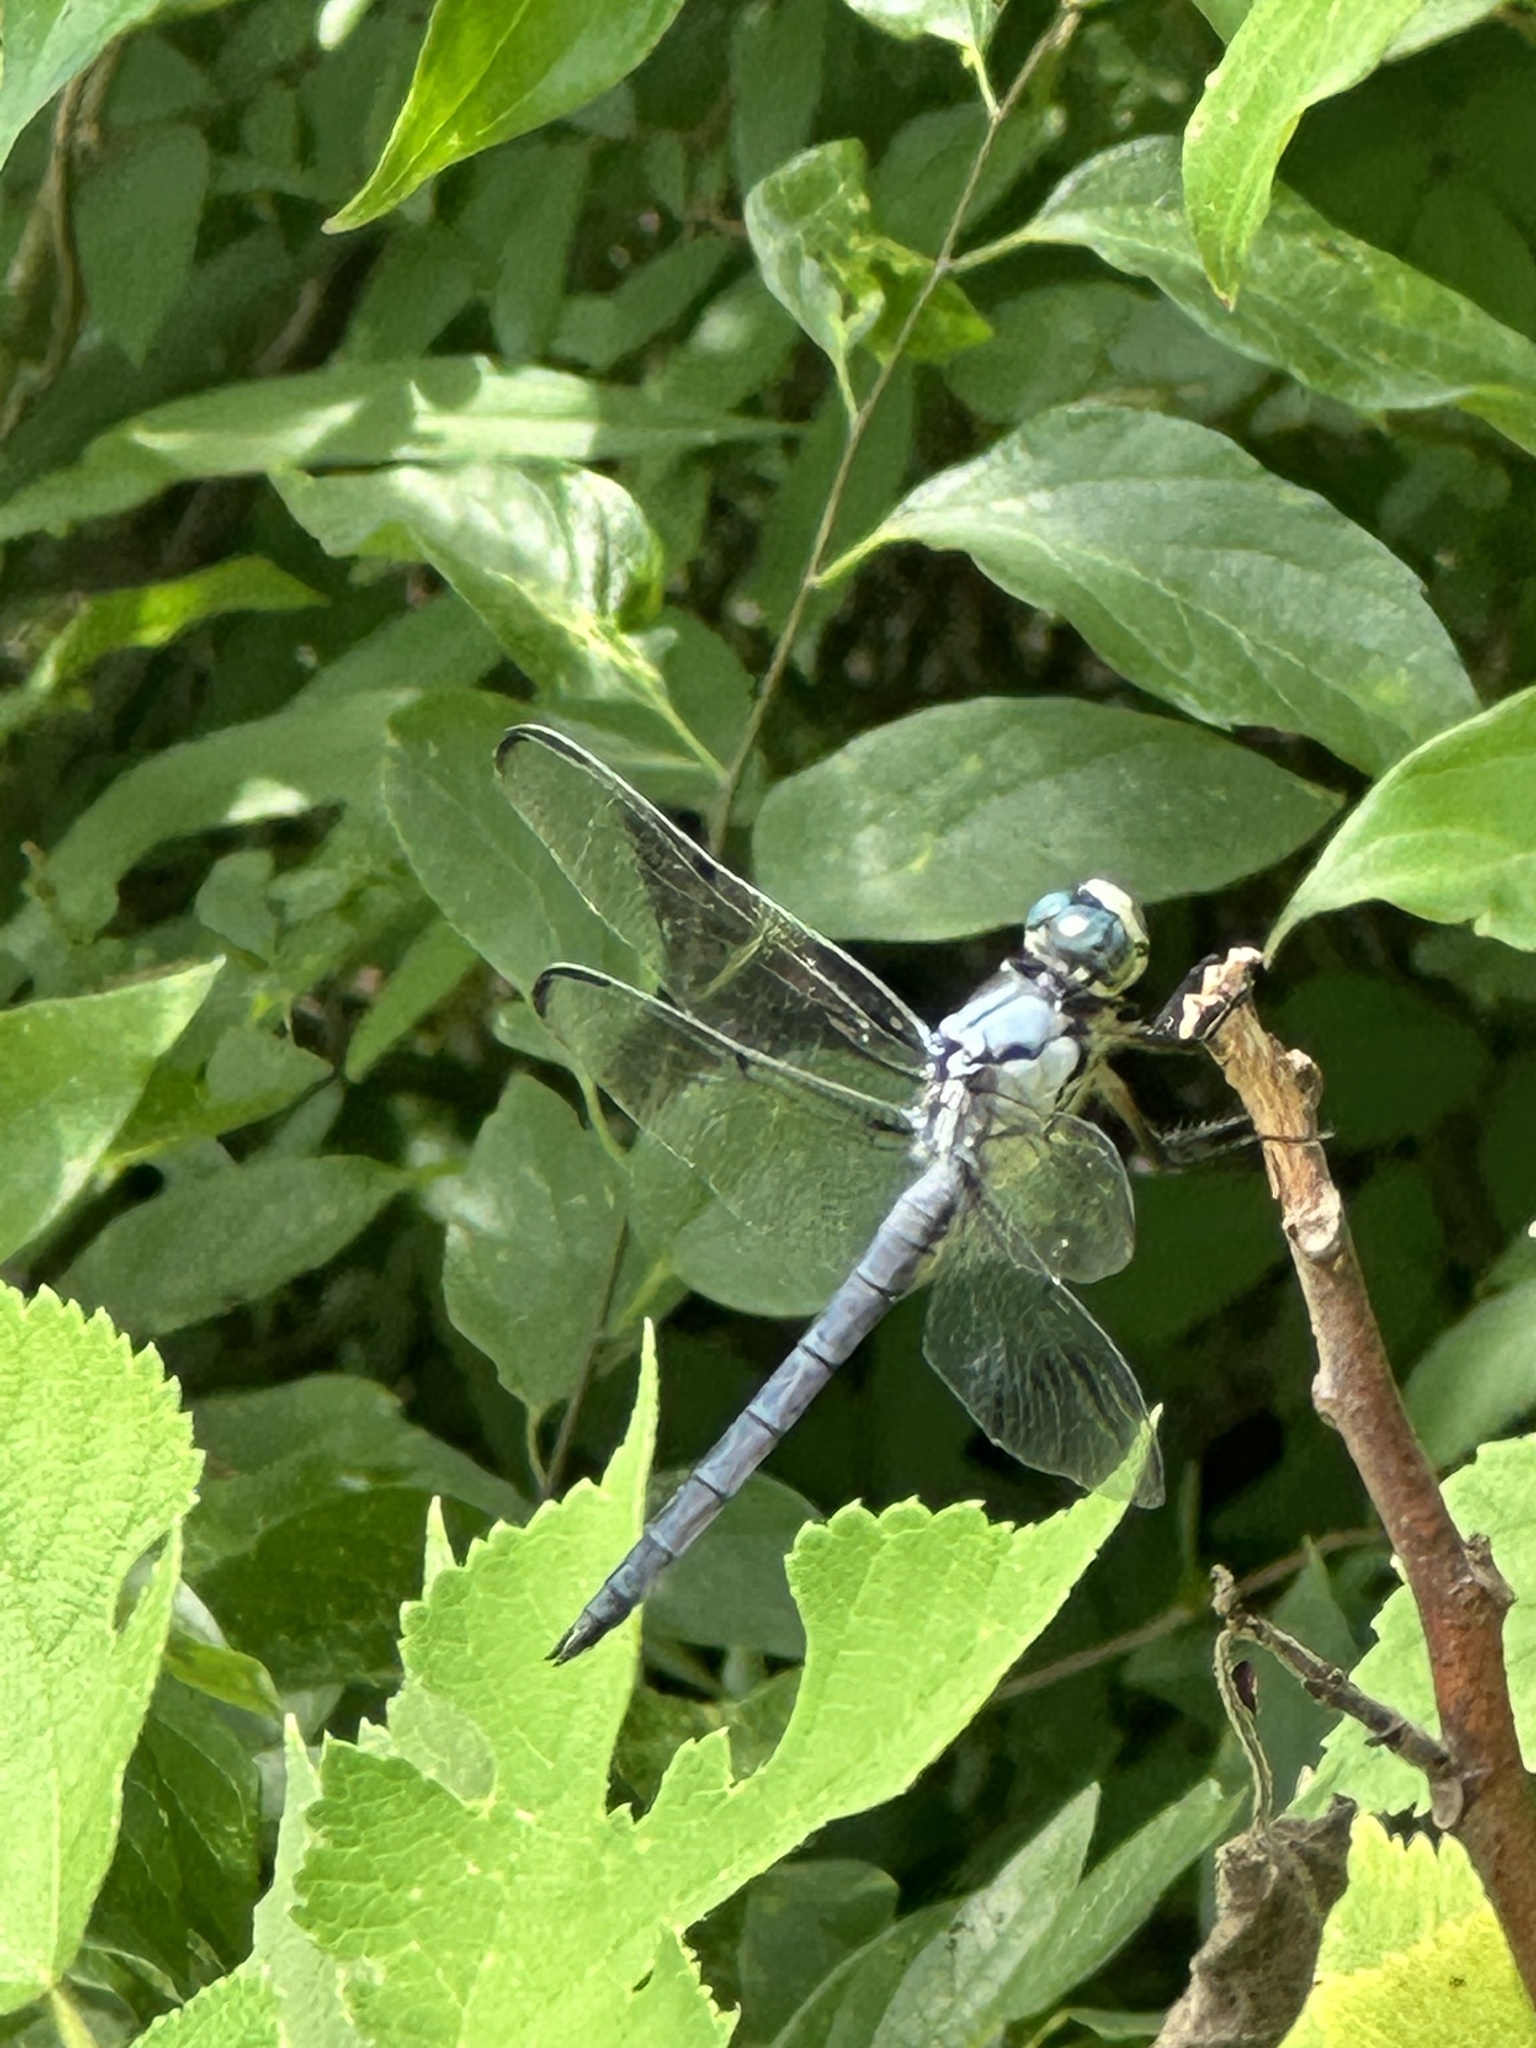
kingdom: Animalia
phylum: Arthropoda
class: Insecta
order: Odonata
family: Libellulidae
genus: Libellula
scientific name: Libellula vibrans
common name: Great blue skimmer
